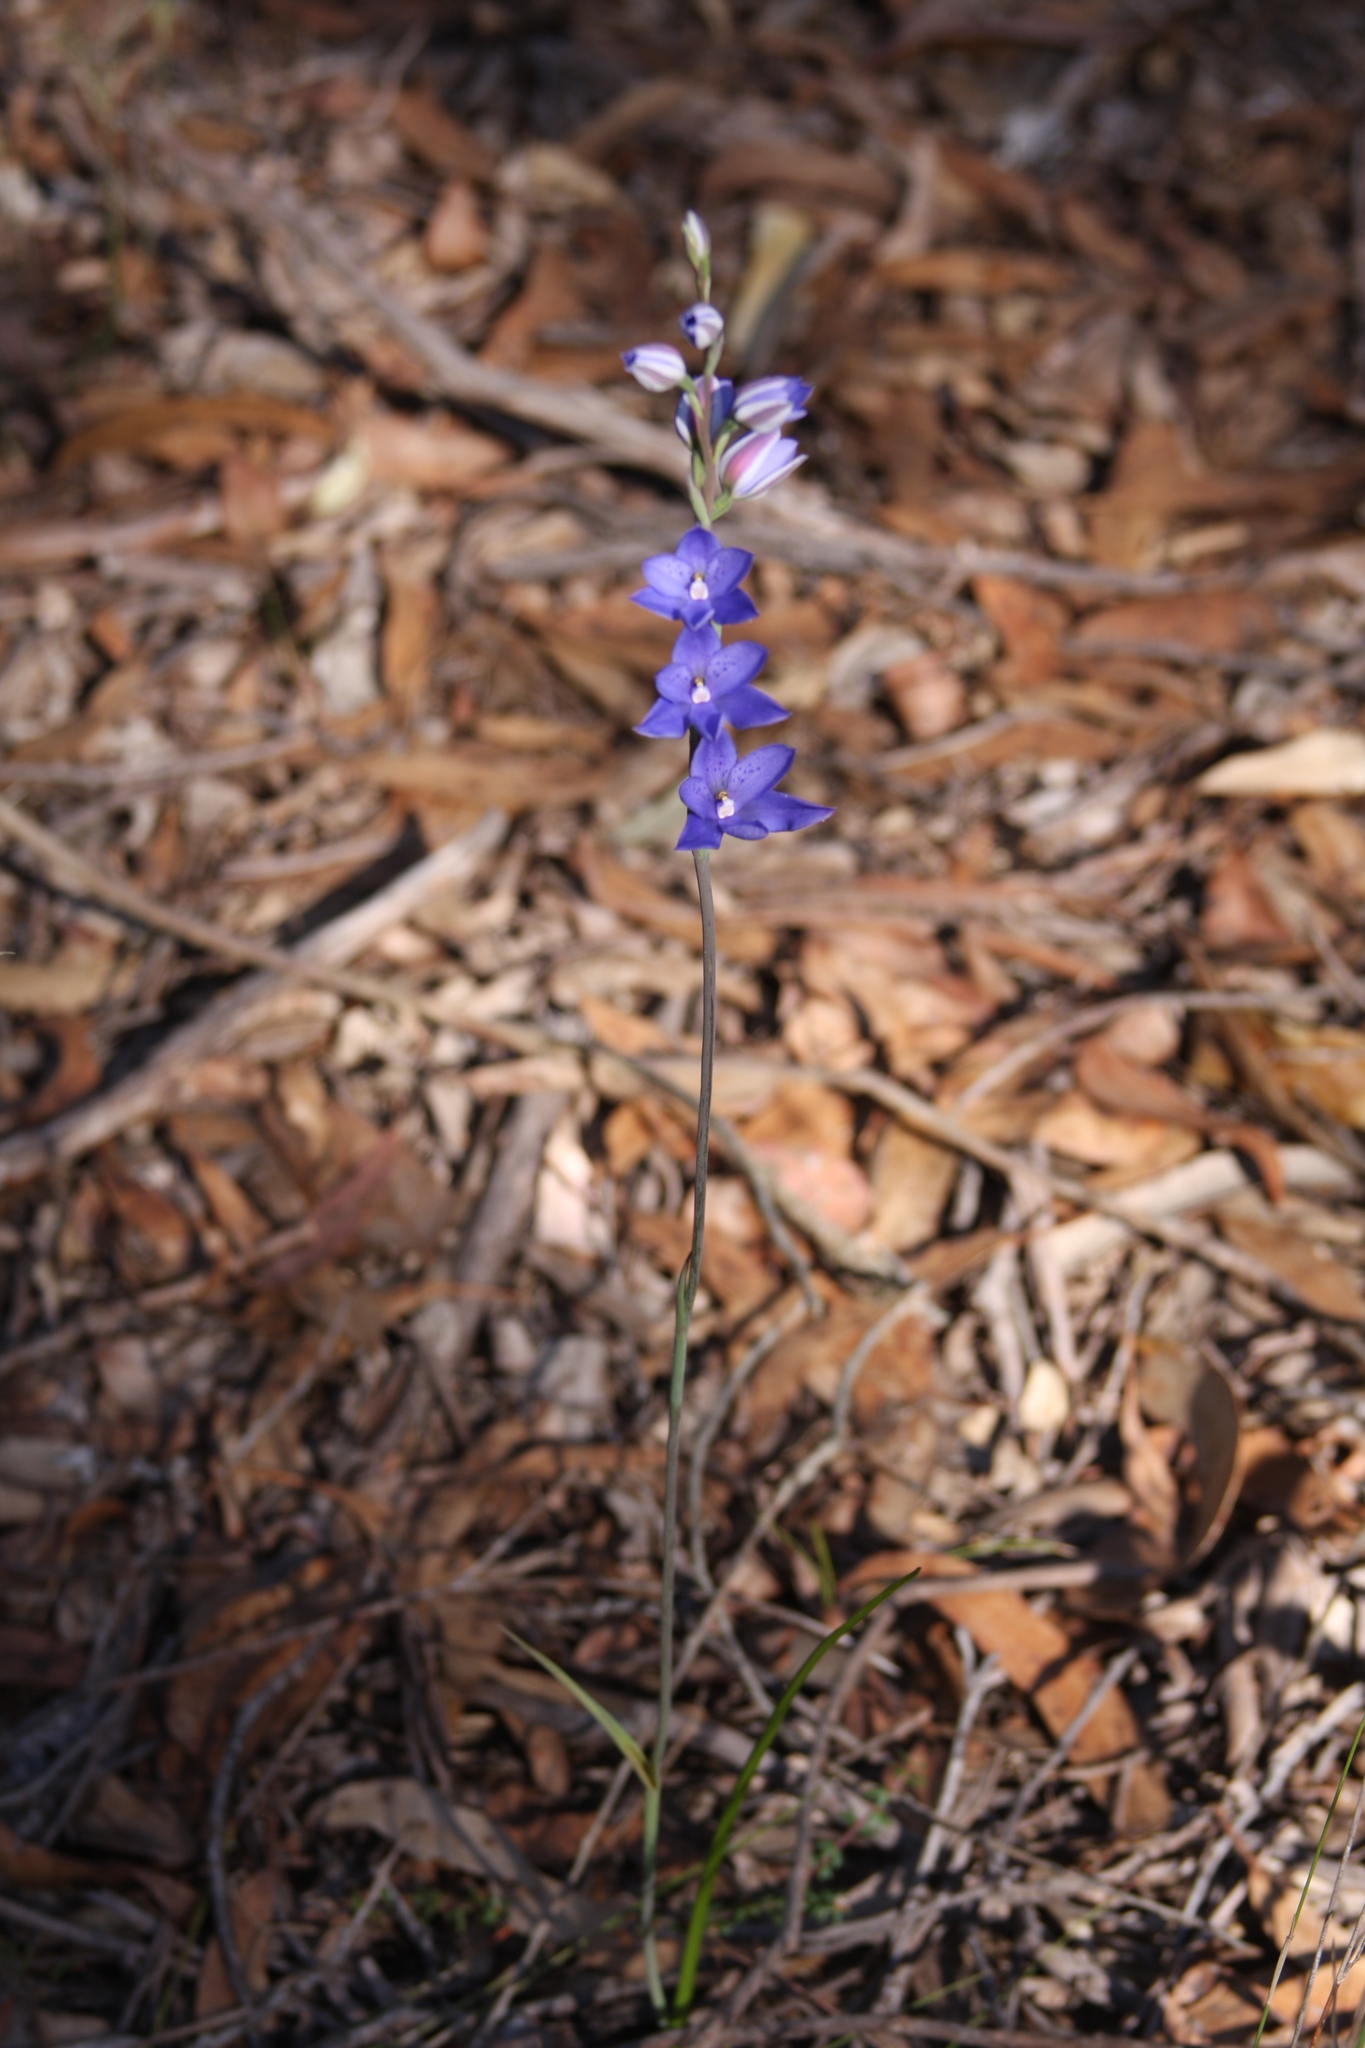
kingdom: Plantae
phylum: Tracheophyta
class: Liliopsida
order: Asparagales
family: Orchidaceae
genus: Thelymitra
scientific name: Thelymitra ixioides
